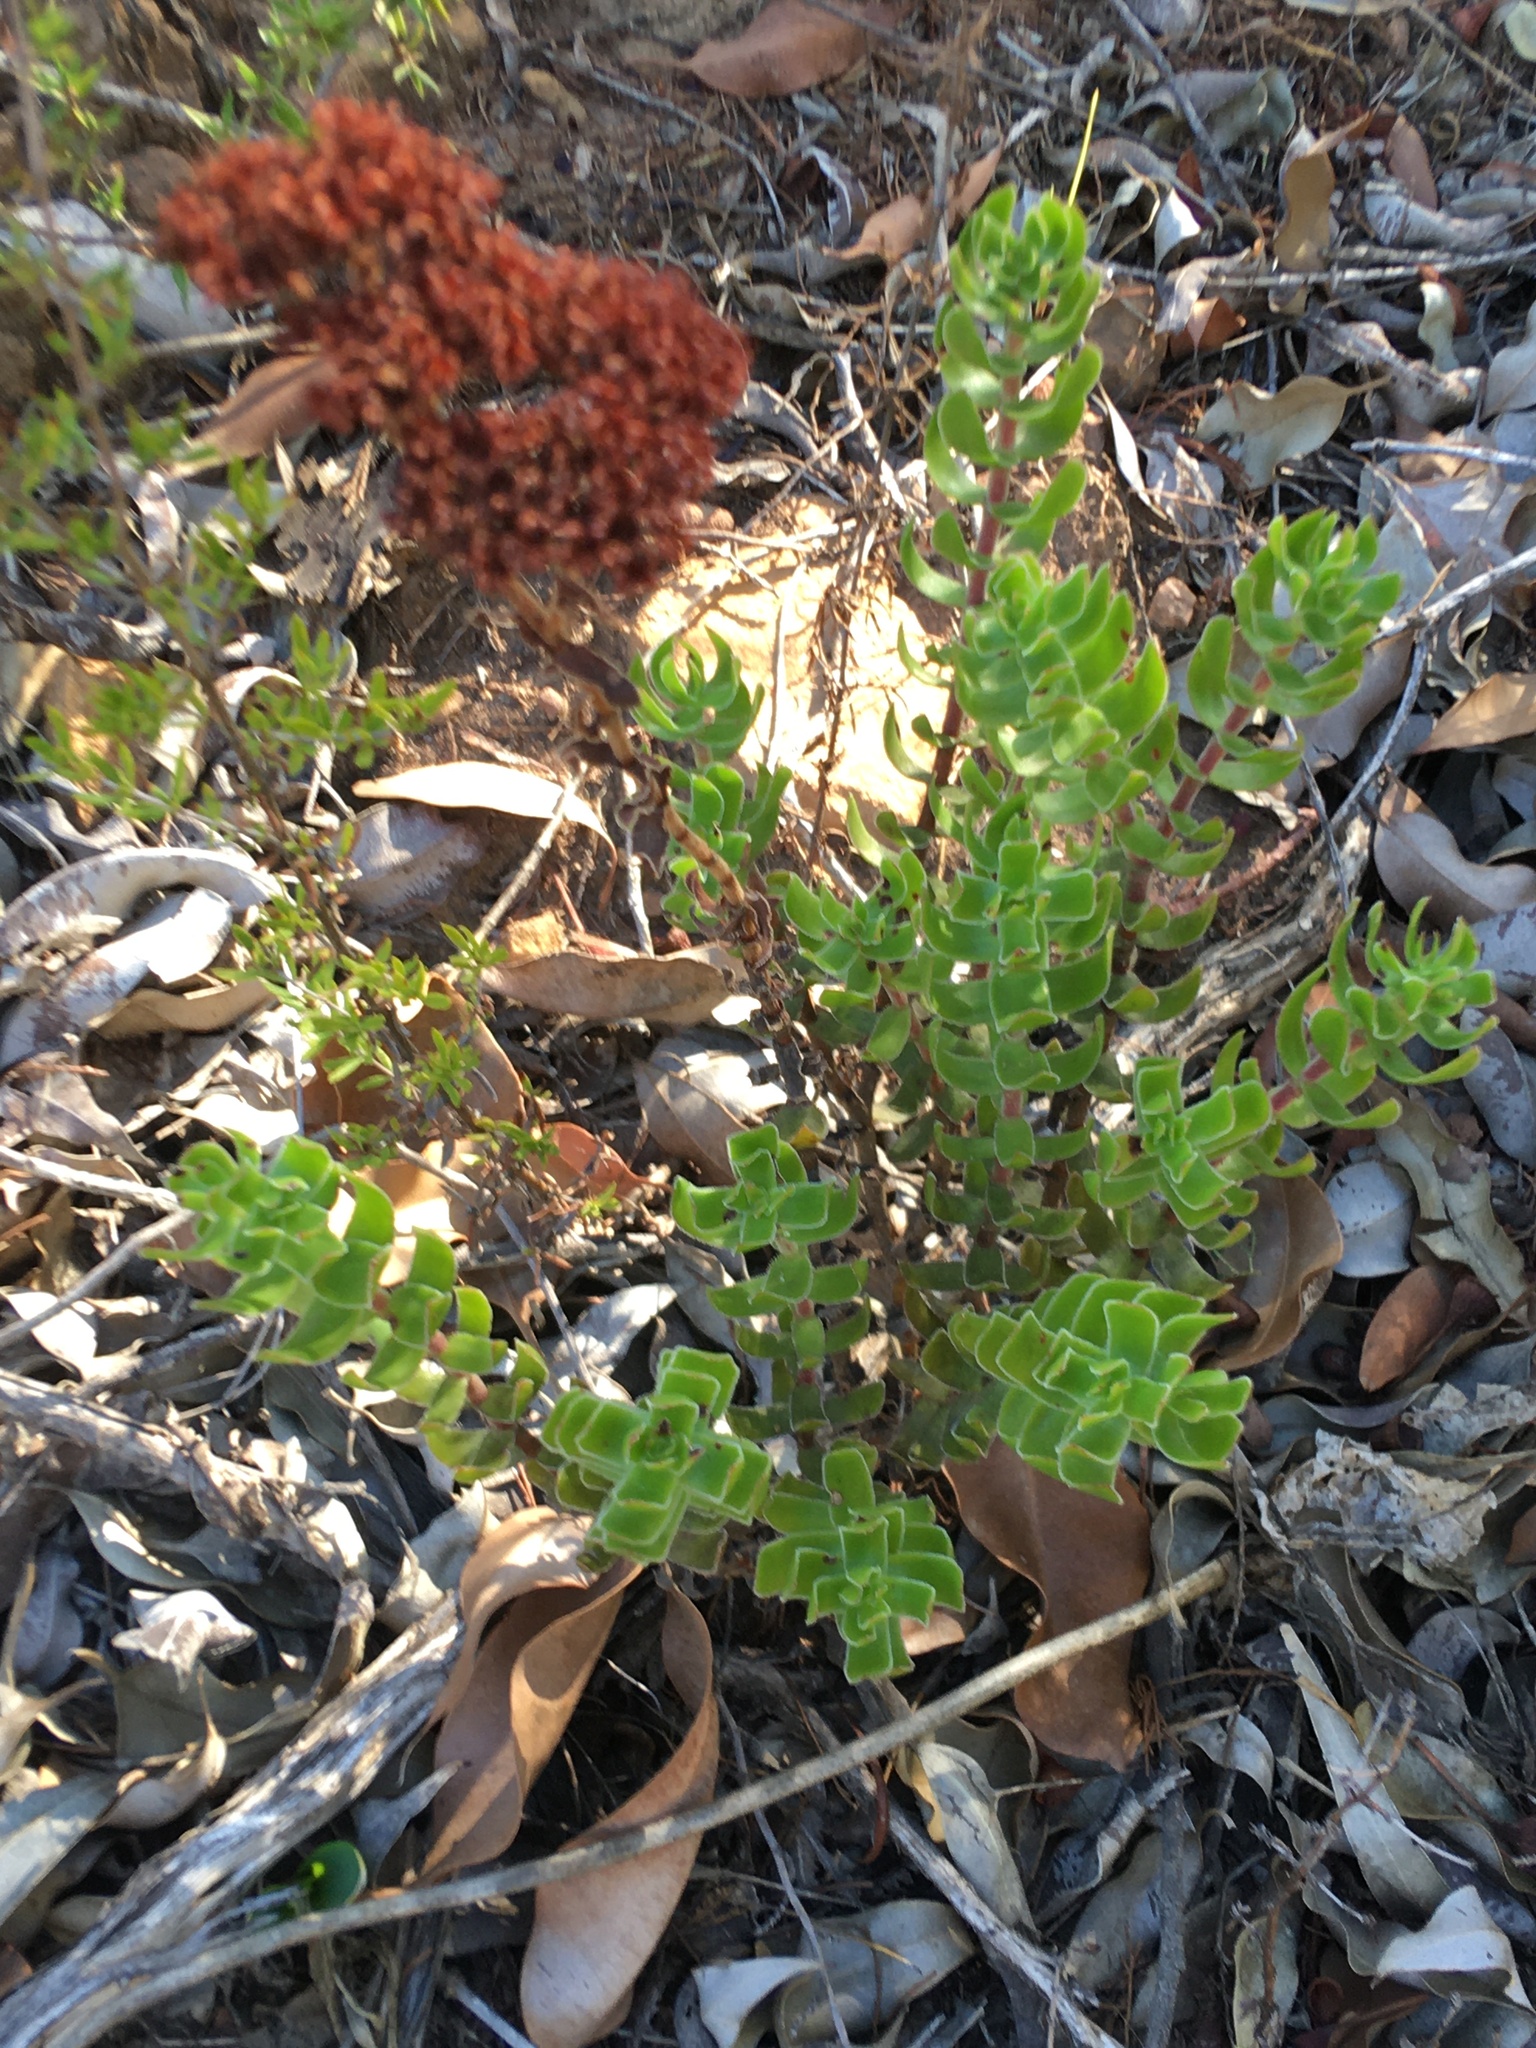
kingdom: Plantae
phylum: Tracheophyta
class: Magnoliopsida
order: Saxifragales
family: Crassulaceae
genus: Crassula
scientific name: Crassula undulata
